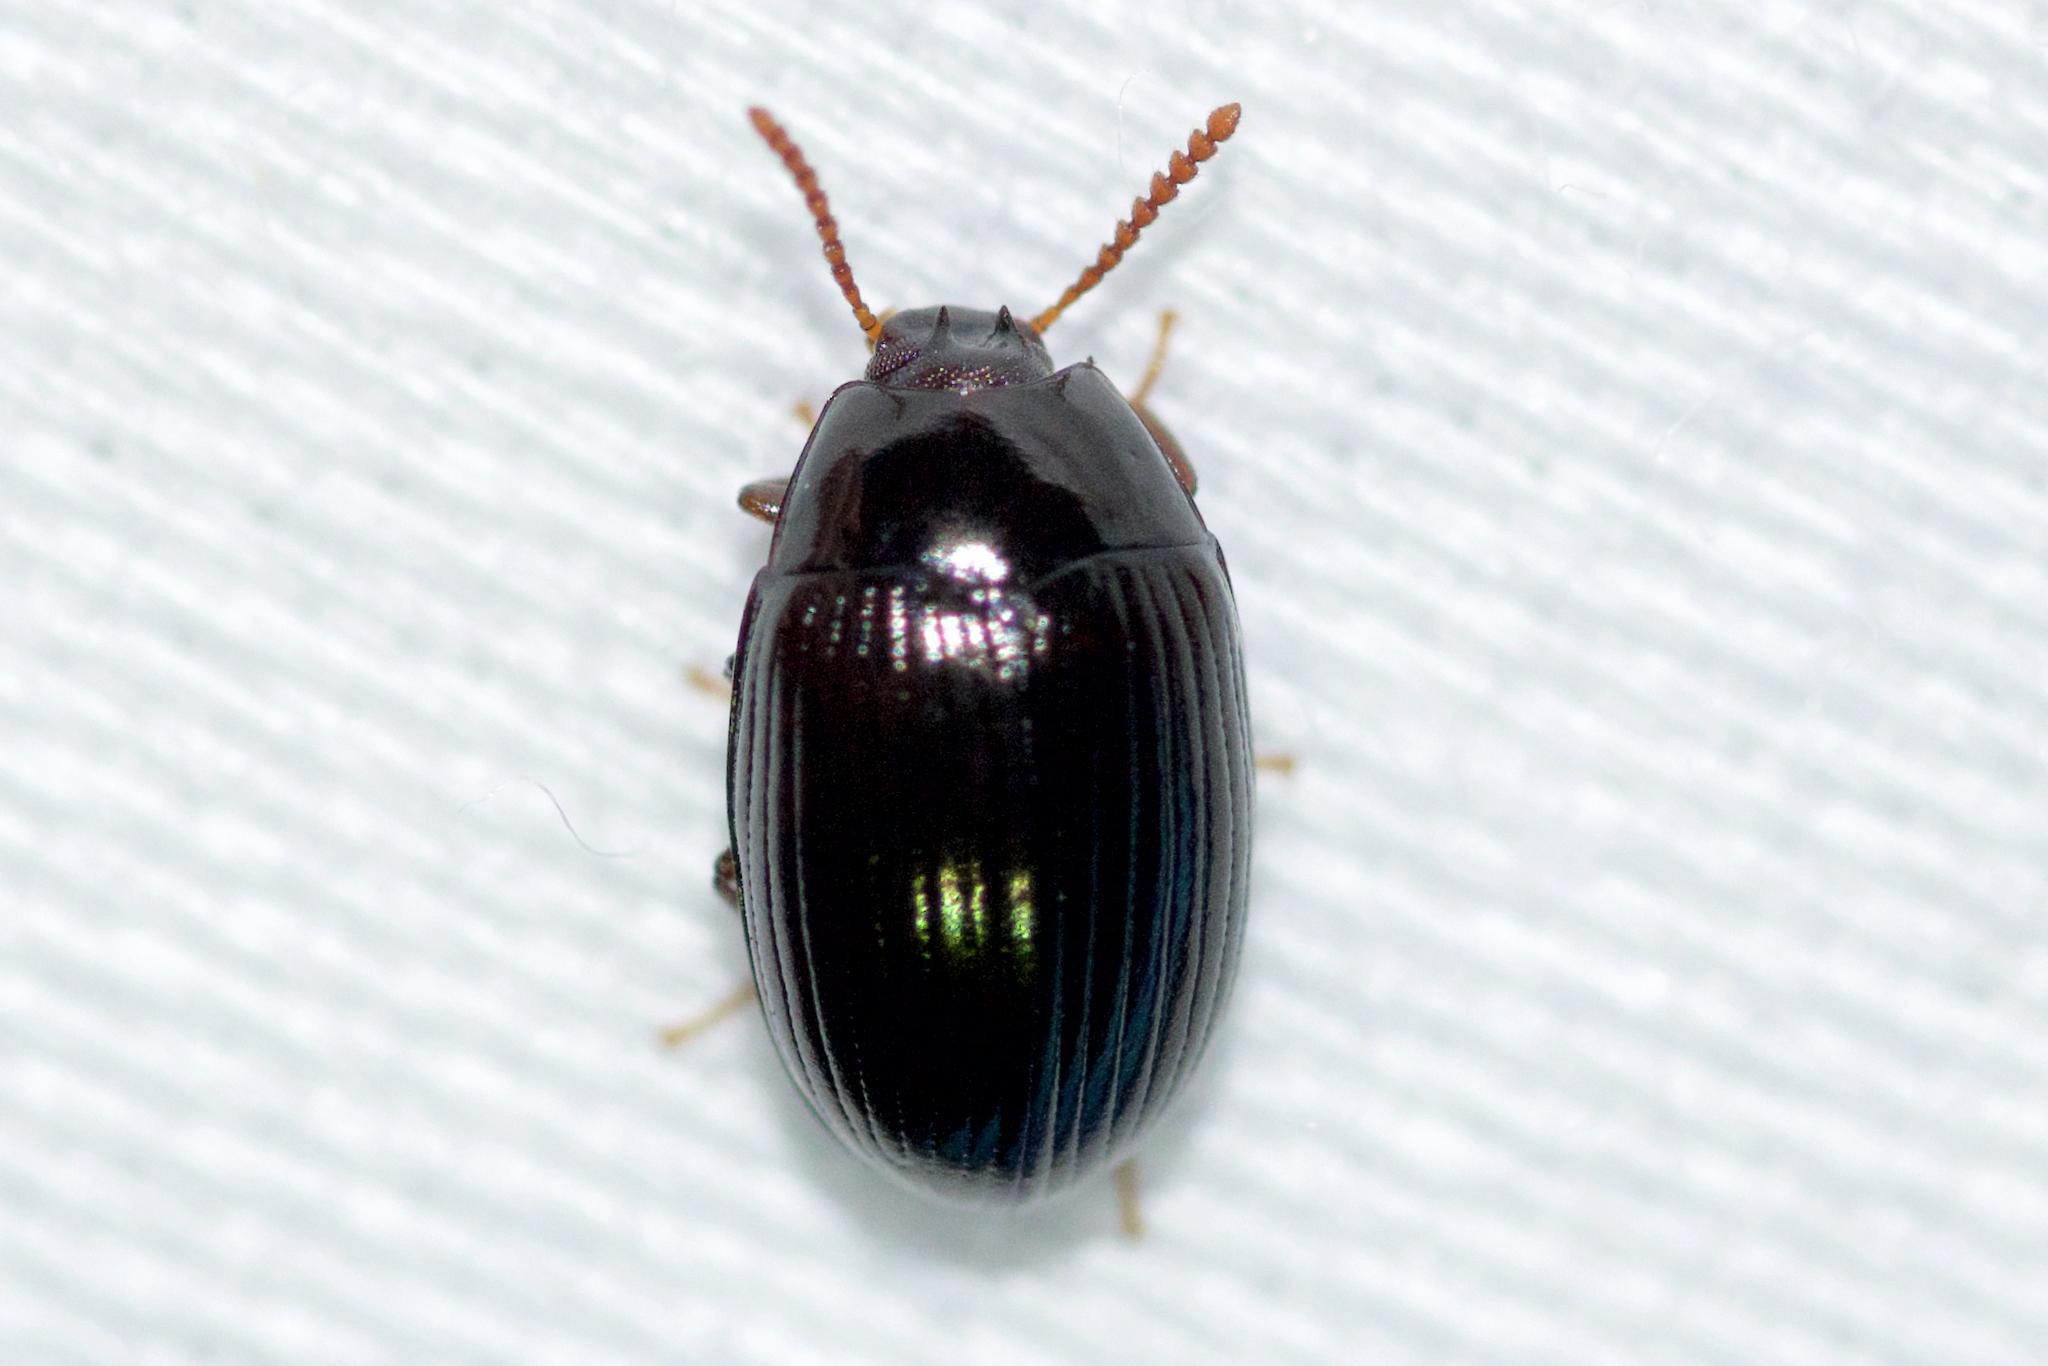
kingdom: Animalia
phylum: Arthropoda
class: Insecta
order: Coleoptera
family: Tenebrionidae
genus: Platydema
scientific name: Platydema excavata
